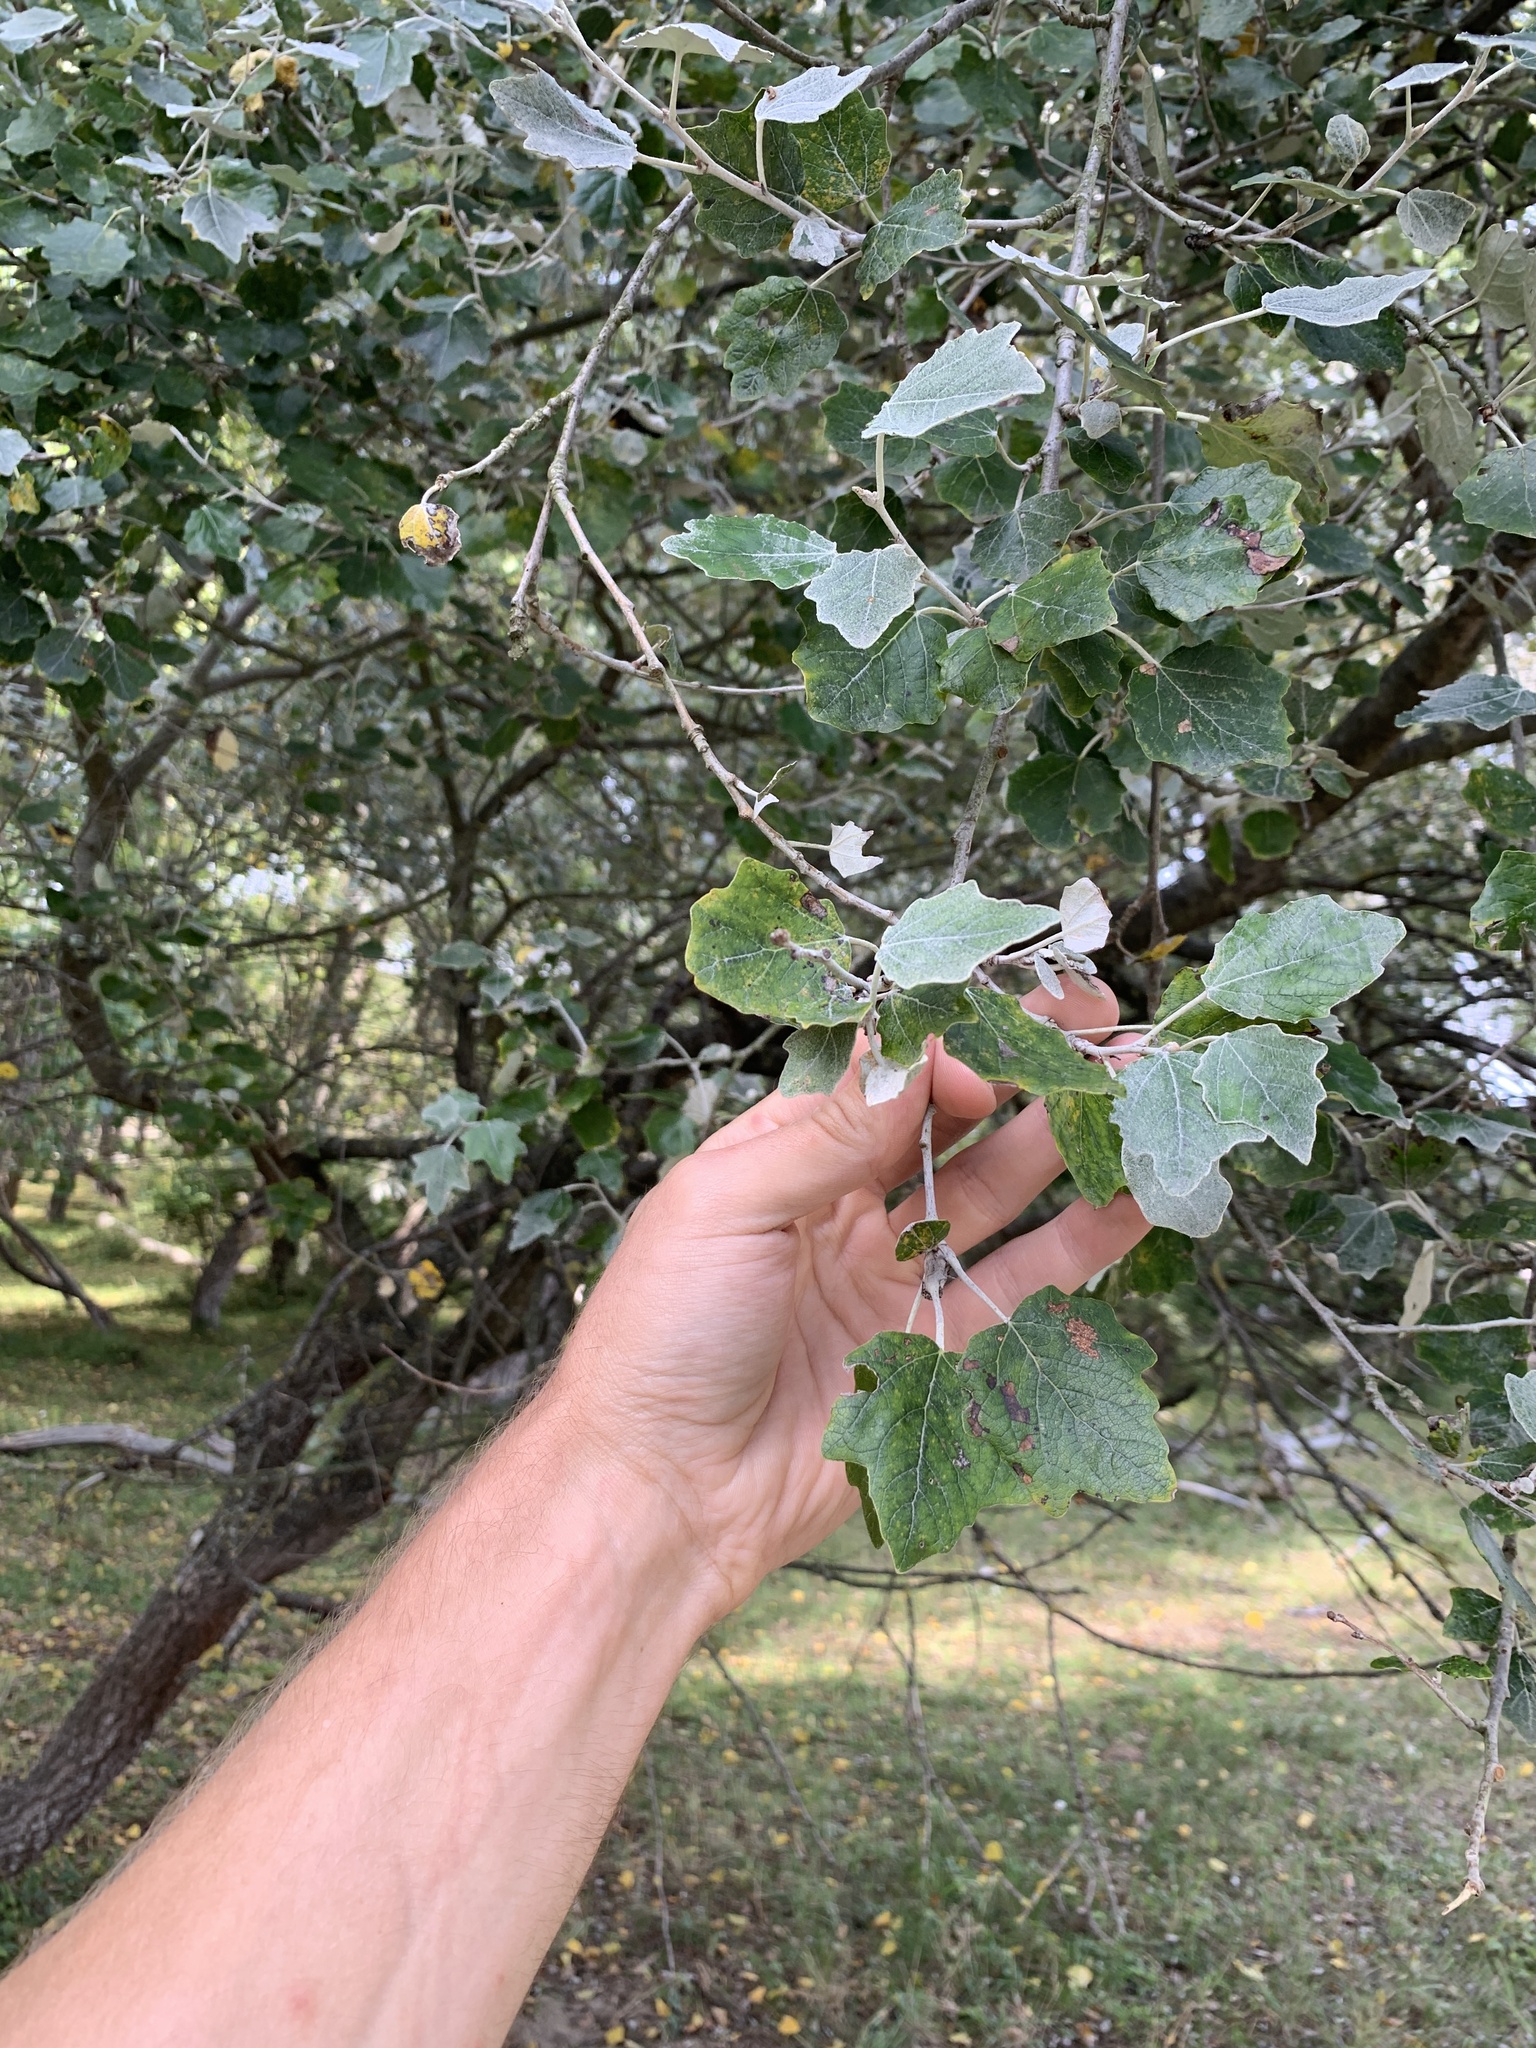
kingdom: Plantae
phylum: Tracheophyta
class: Magnoliopsida
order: Malpighiales
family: Salicaceae
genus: Populus
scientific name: Populus alba
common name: White poplar
